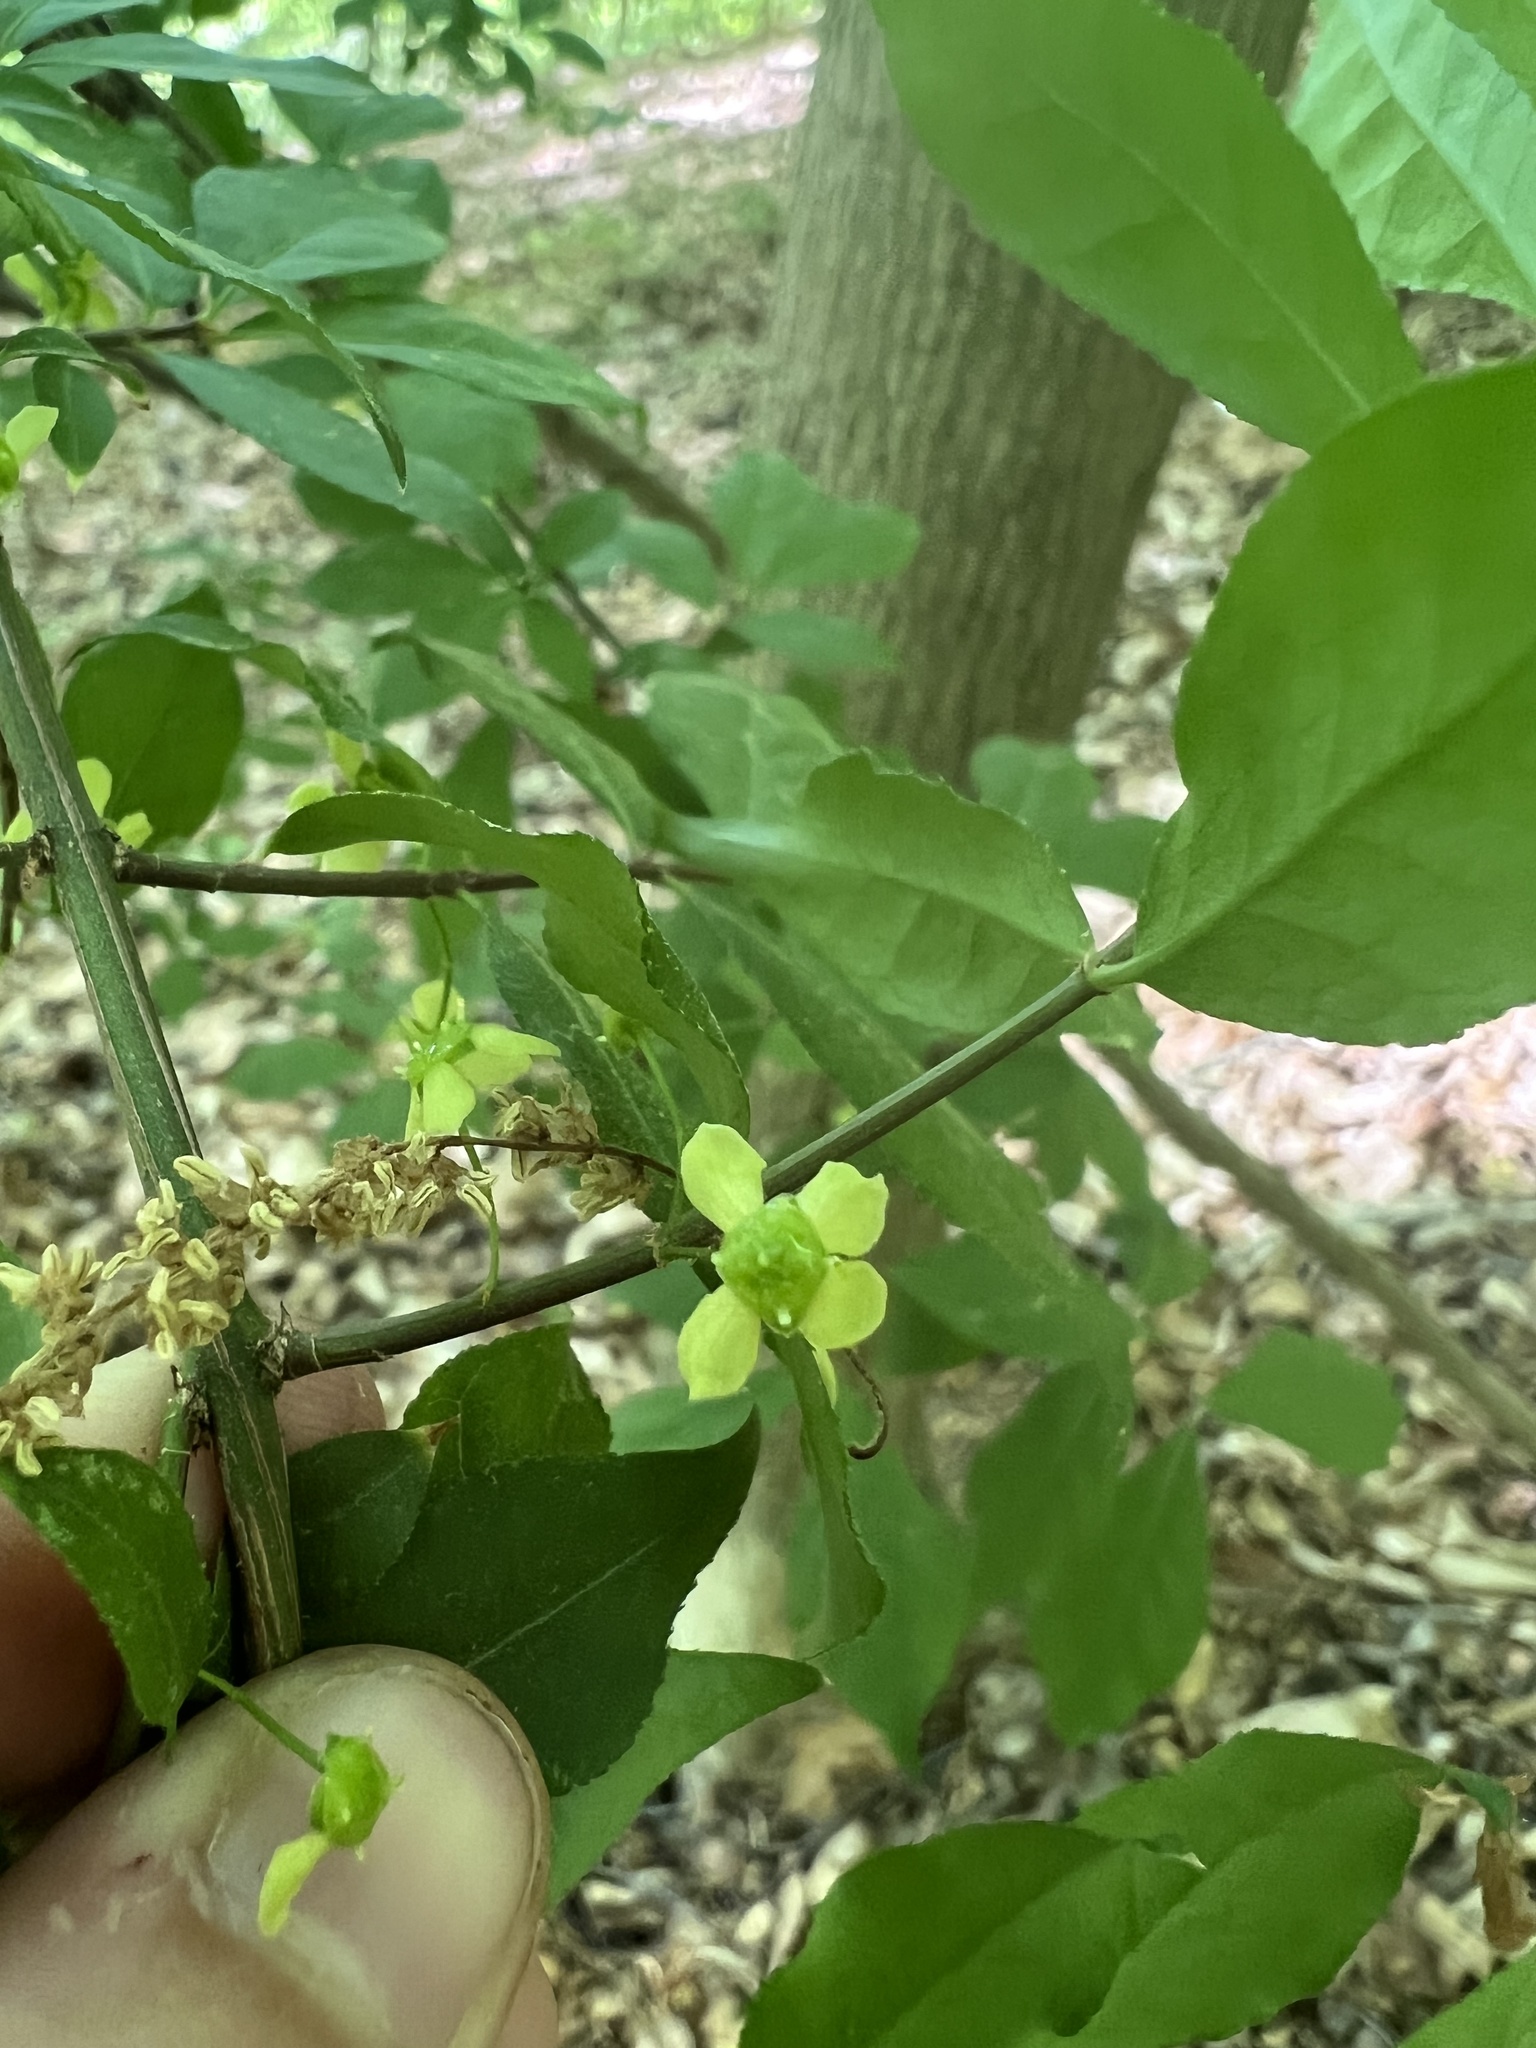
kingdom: Plantae
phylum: Tracheophyta
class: Magnoliopsida
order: Celastrales
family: Celastraceae
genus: Euonymus
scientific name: Euonymus alatus
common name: Winged euonymus
